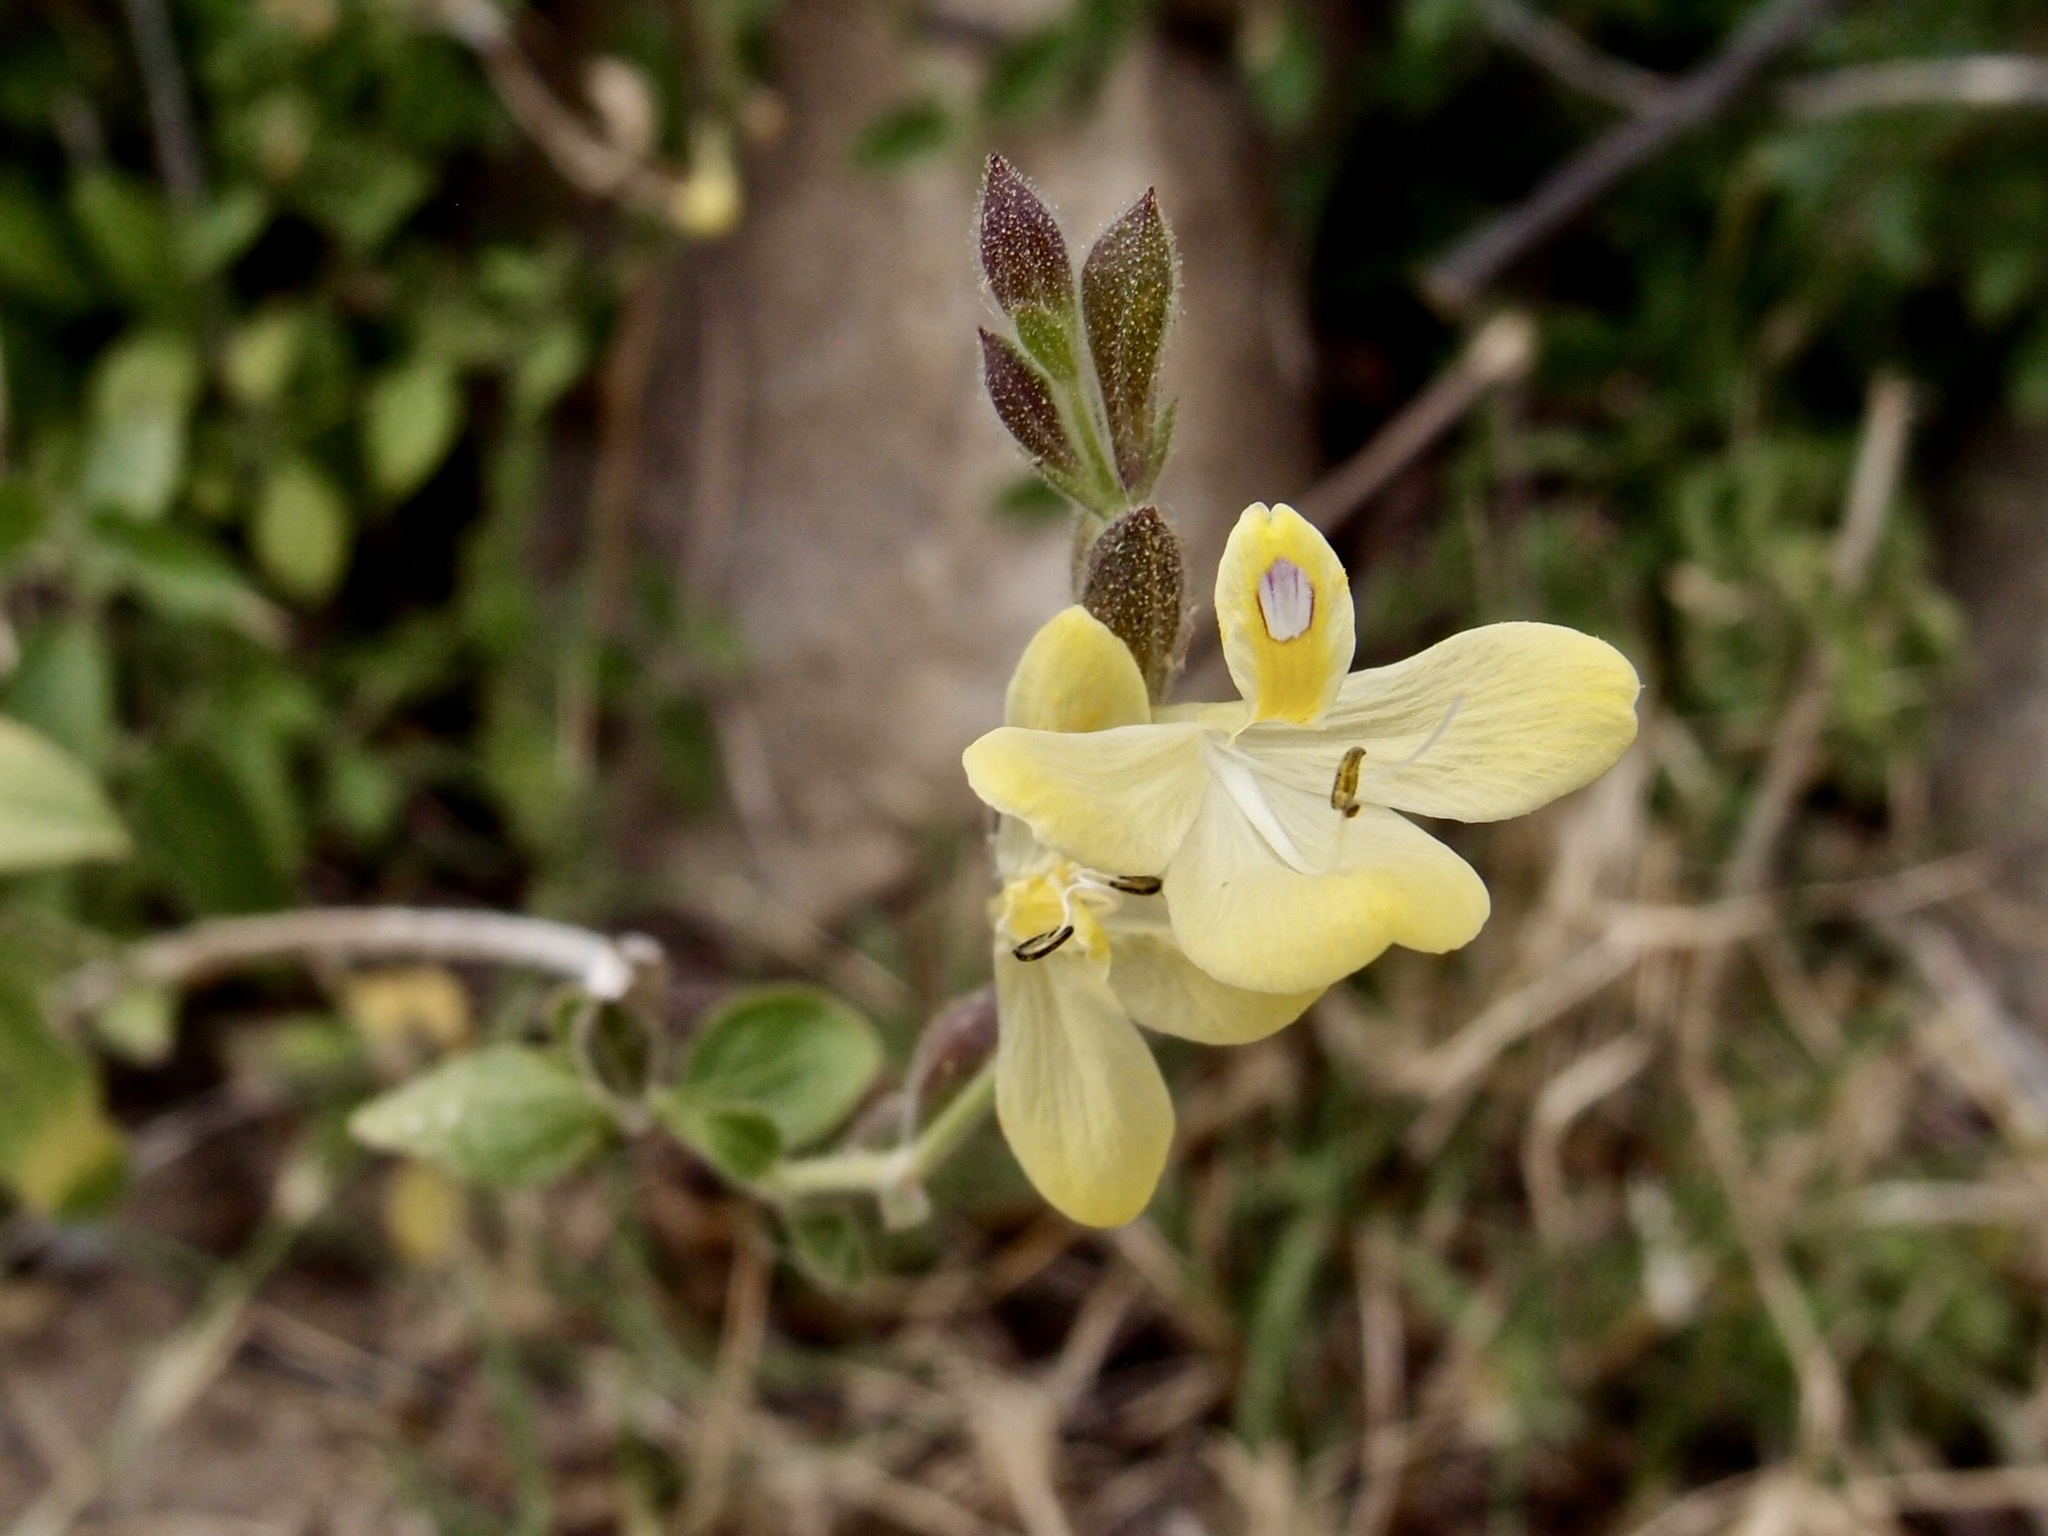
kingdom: Plantae
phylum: Tracheophyta
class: Magnoliopsida
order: Lamiales
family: Acanthaceae
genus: Henrya
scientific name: Henrya insularis
